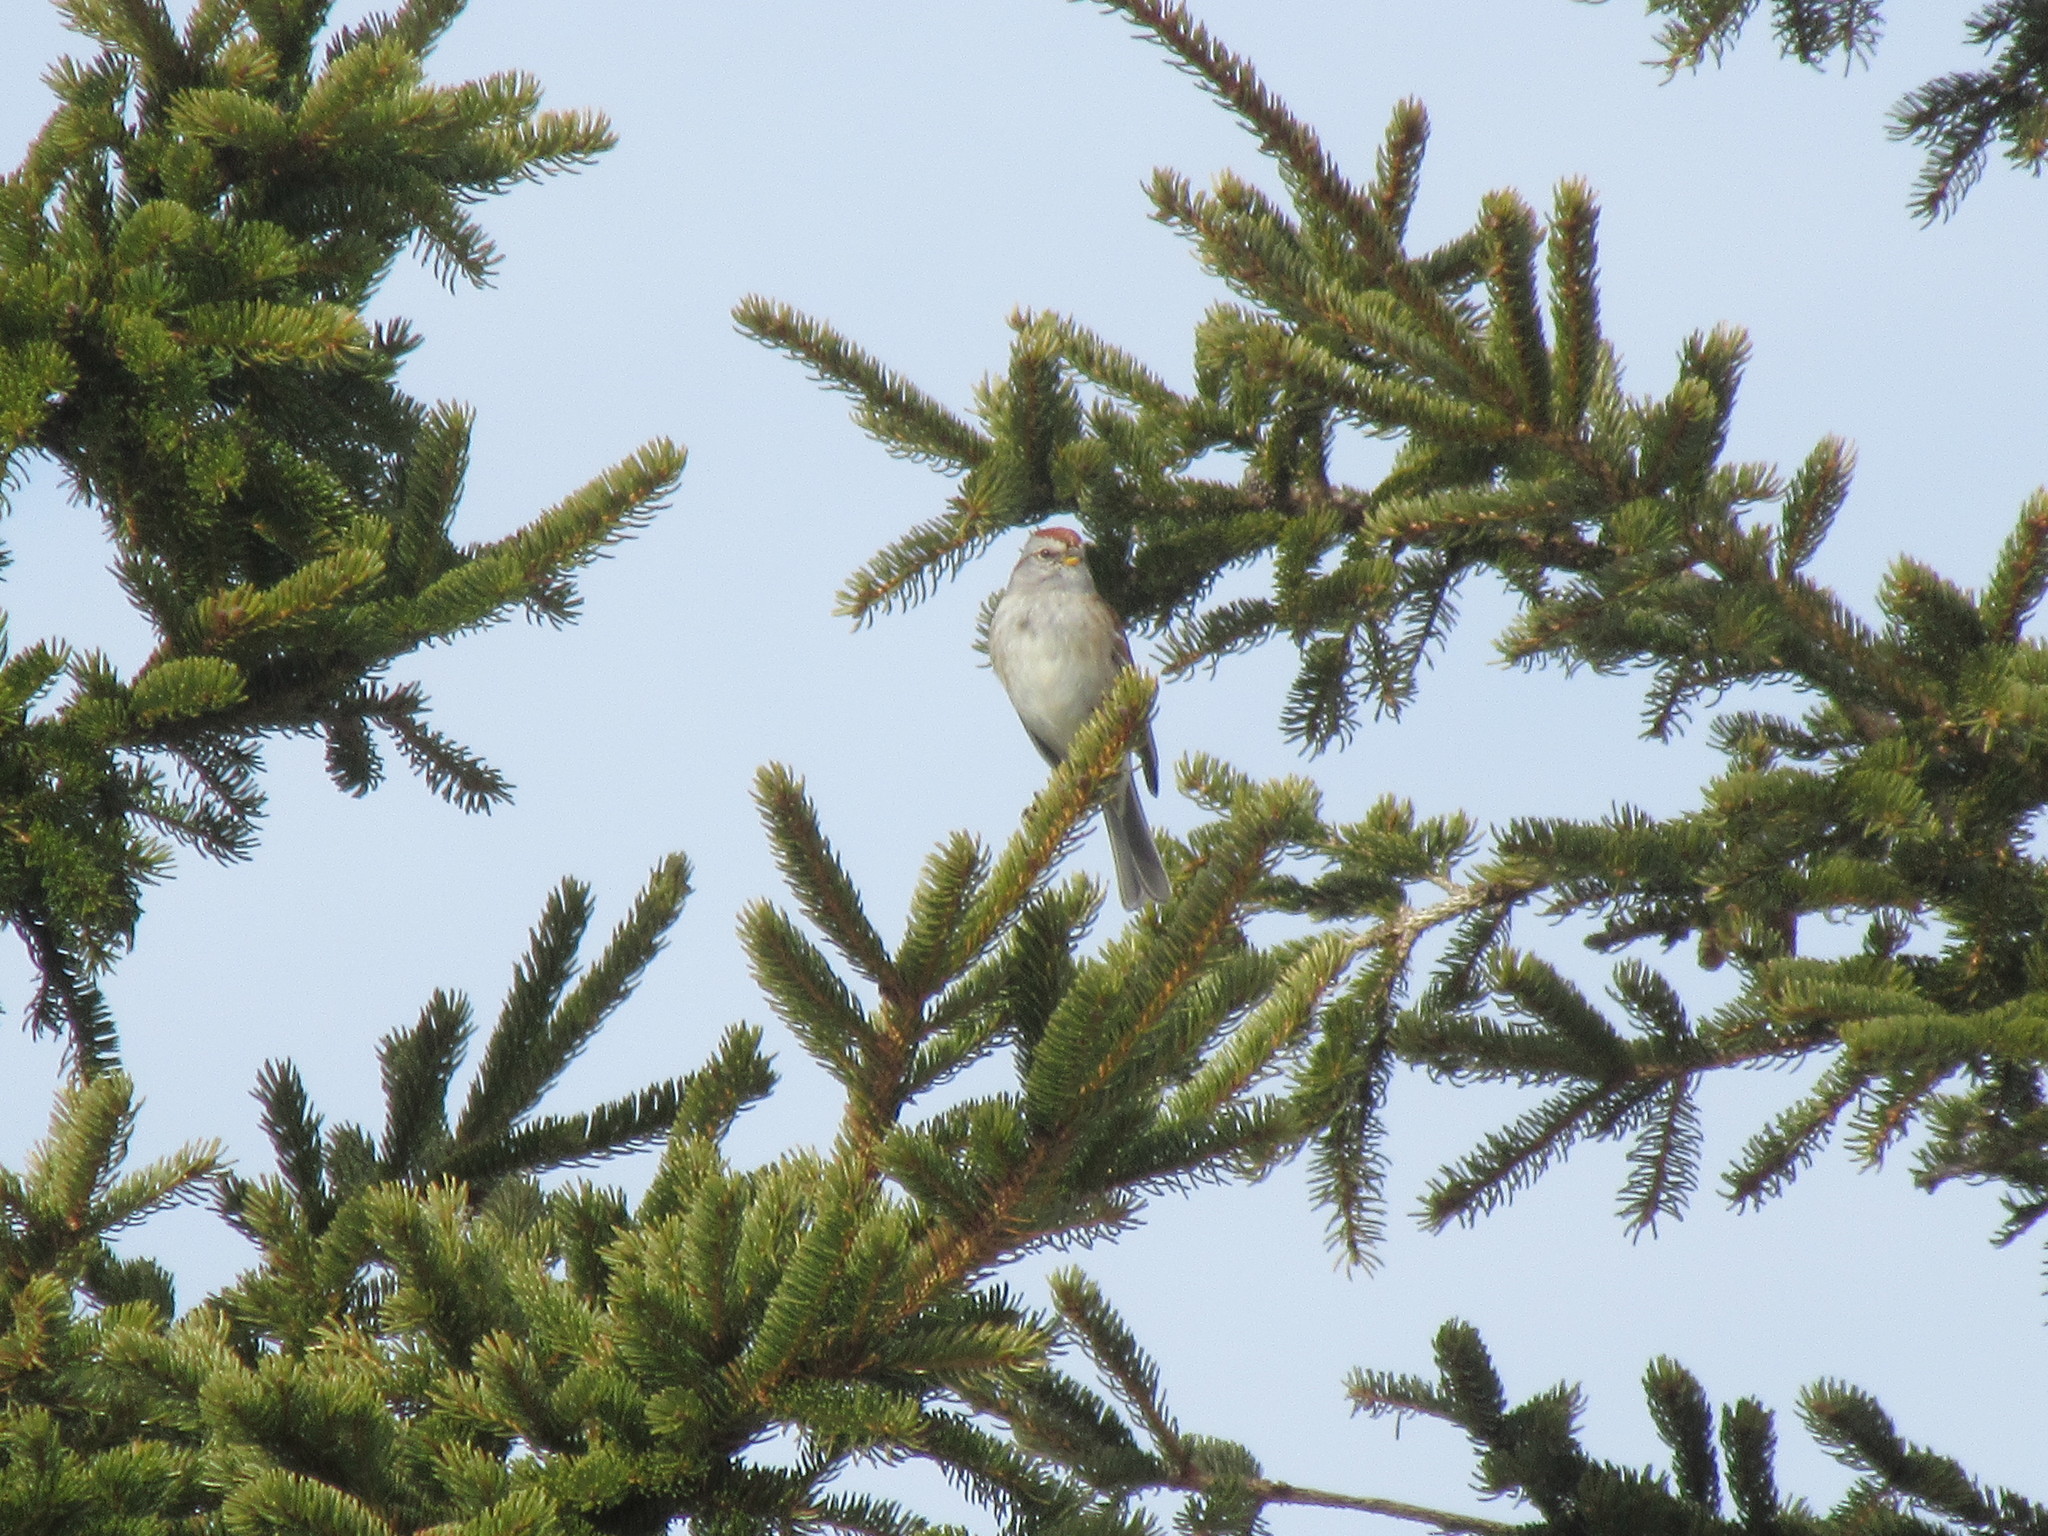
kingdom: Animalia
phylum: Chordata
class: Aves
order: Passeriformes
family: Passerellidae
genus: Spizelloides
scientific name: Spizelloides arborea
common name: American tree sparrow
